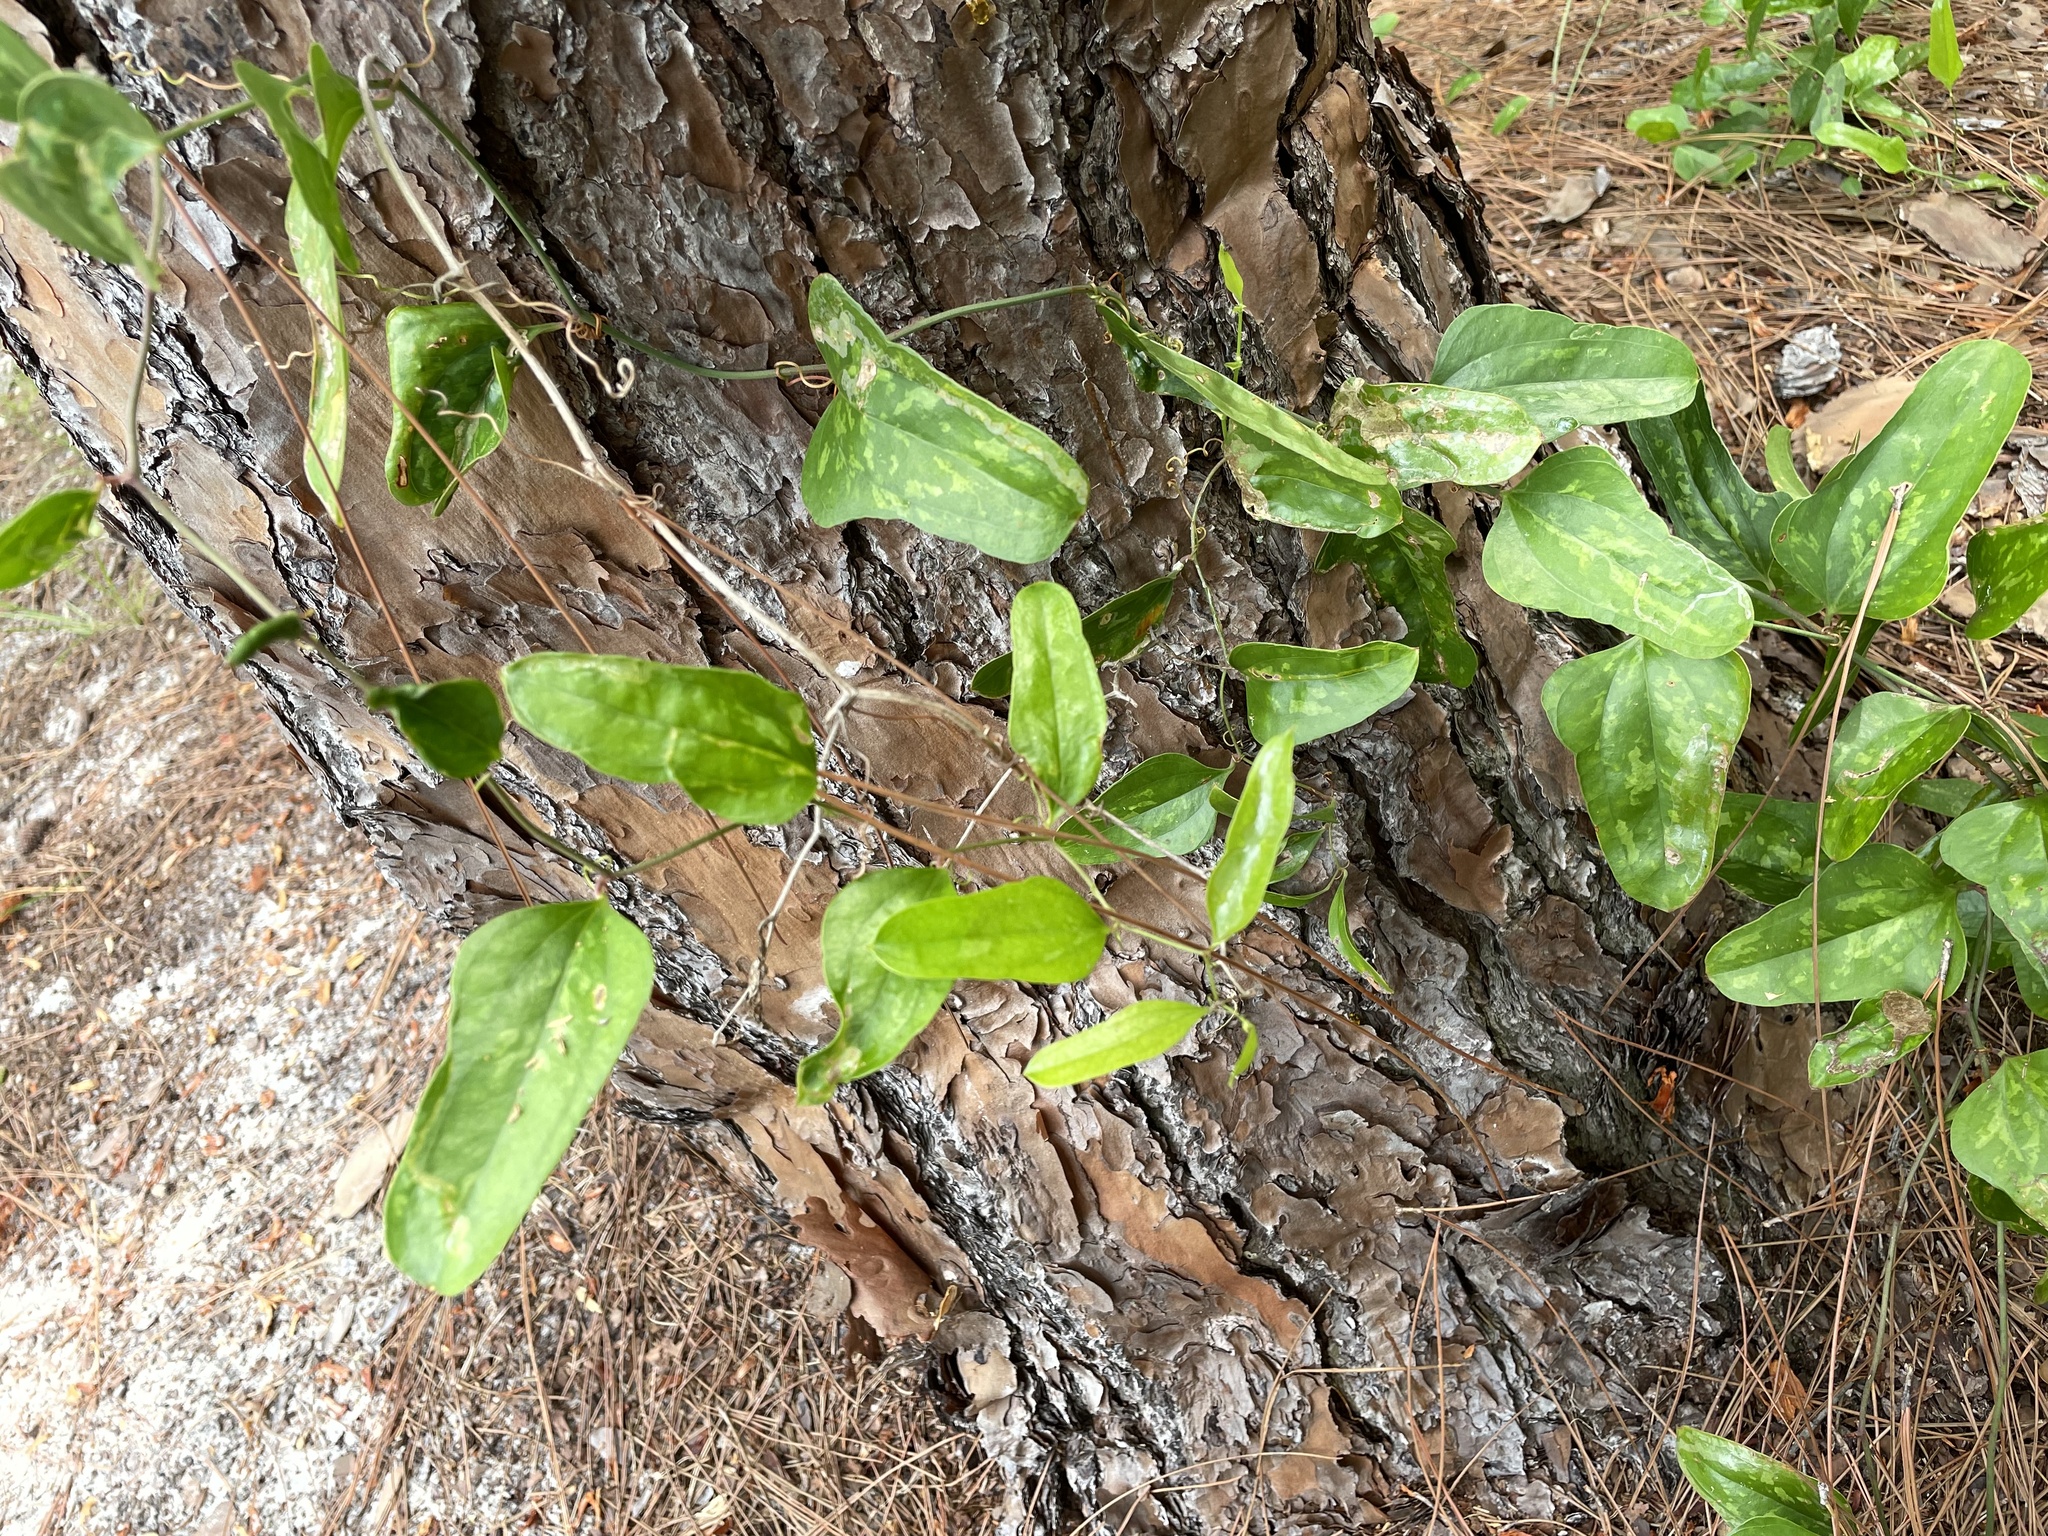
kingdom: Plantae
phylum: Tracheophyta
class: Liliopsida
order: Liliales
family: Smilacaceae
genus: Smilax
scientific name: Smilax auriculata
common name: Wild bamboo
